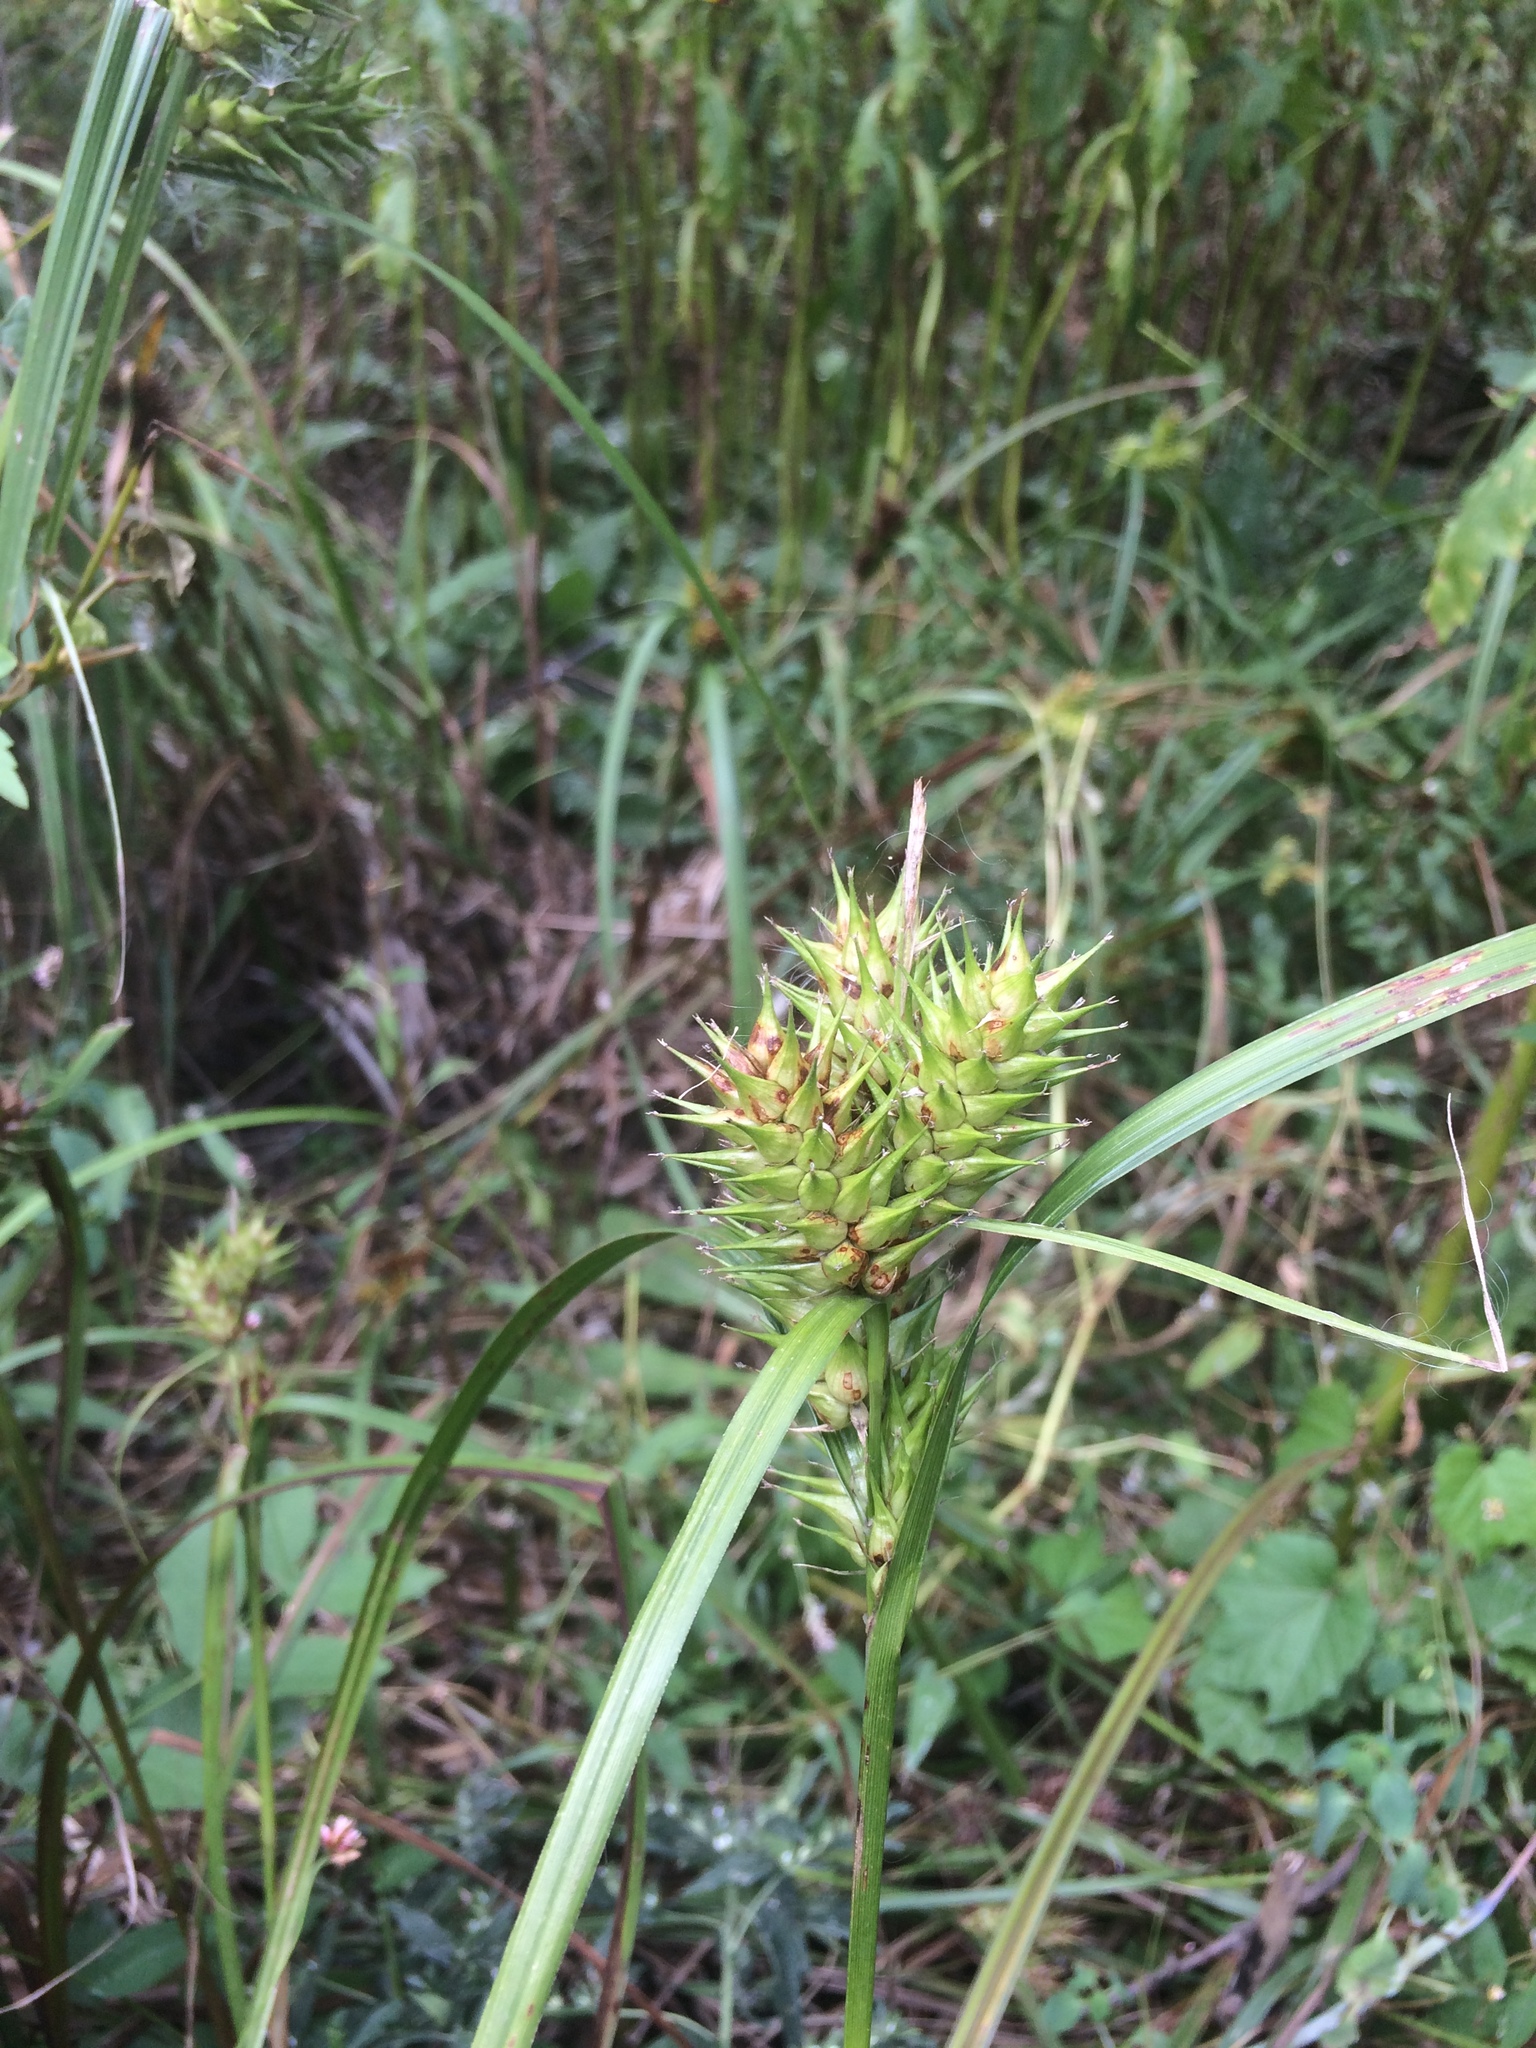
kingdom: Plantae
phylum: Tracheophyta
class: Liliopsida
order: Poales
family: Cyperaceae
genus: Carex
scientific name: Carex lupulina
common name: Hop sedge
